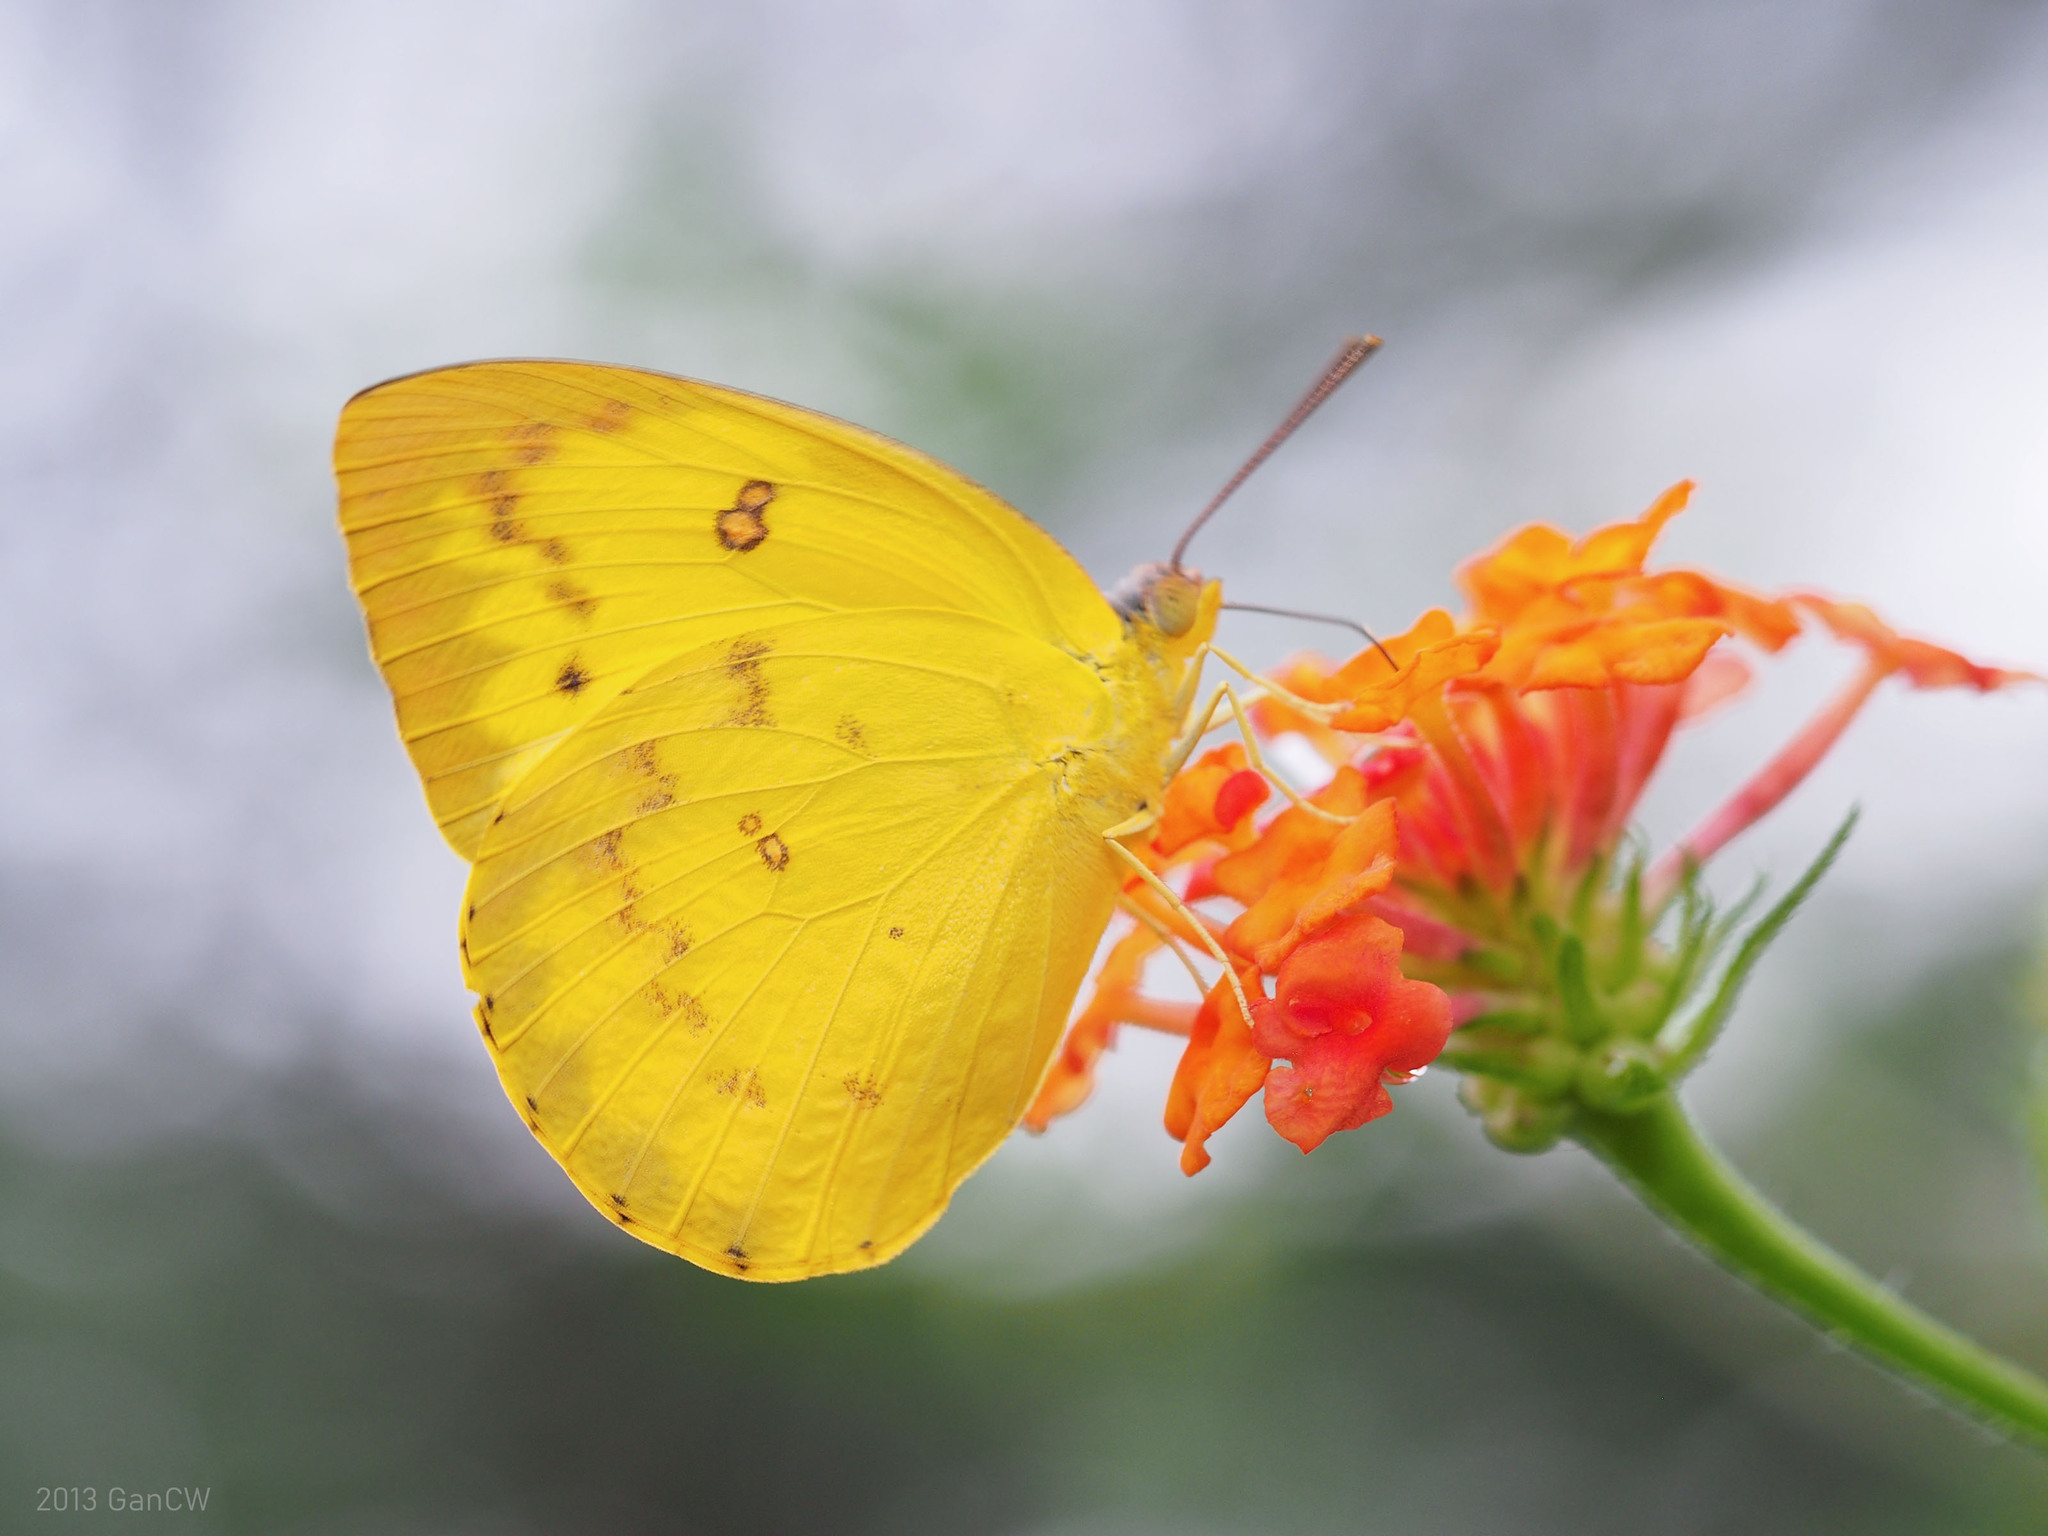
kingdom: Animalia
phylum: Arthropoda
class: Insecta
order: Lepidoptera
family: Pieridae
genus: Catopsilia
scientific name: Catopsilia scylla
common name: Orange emigrant
